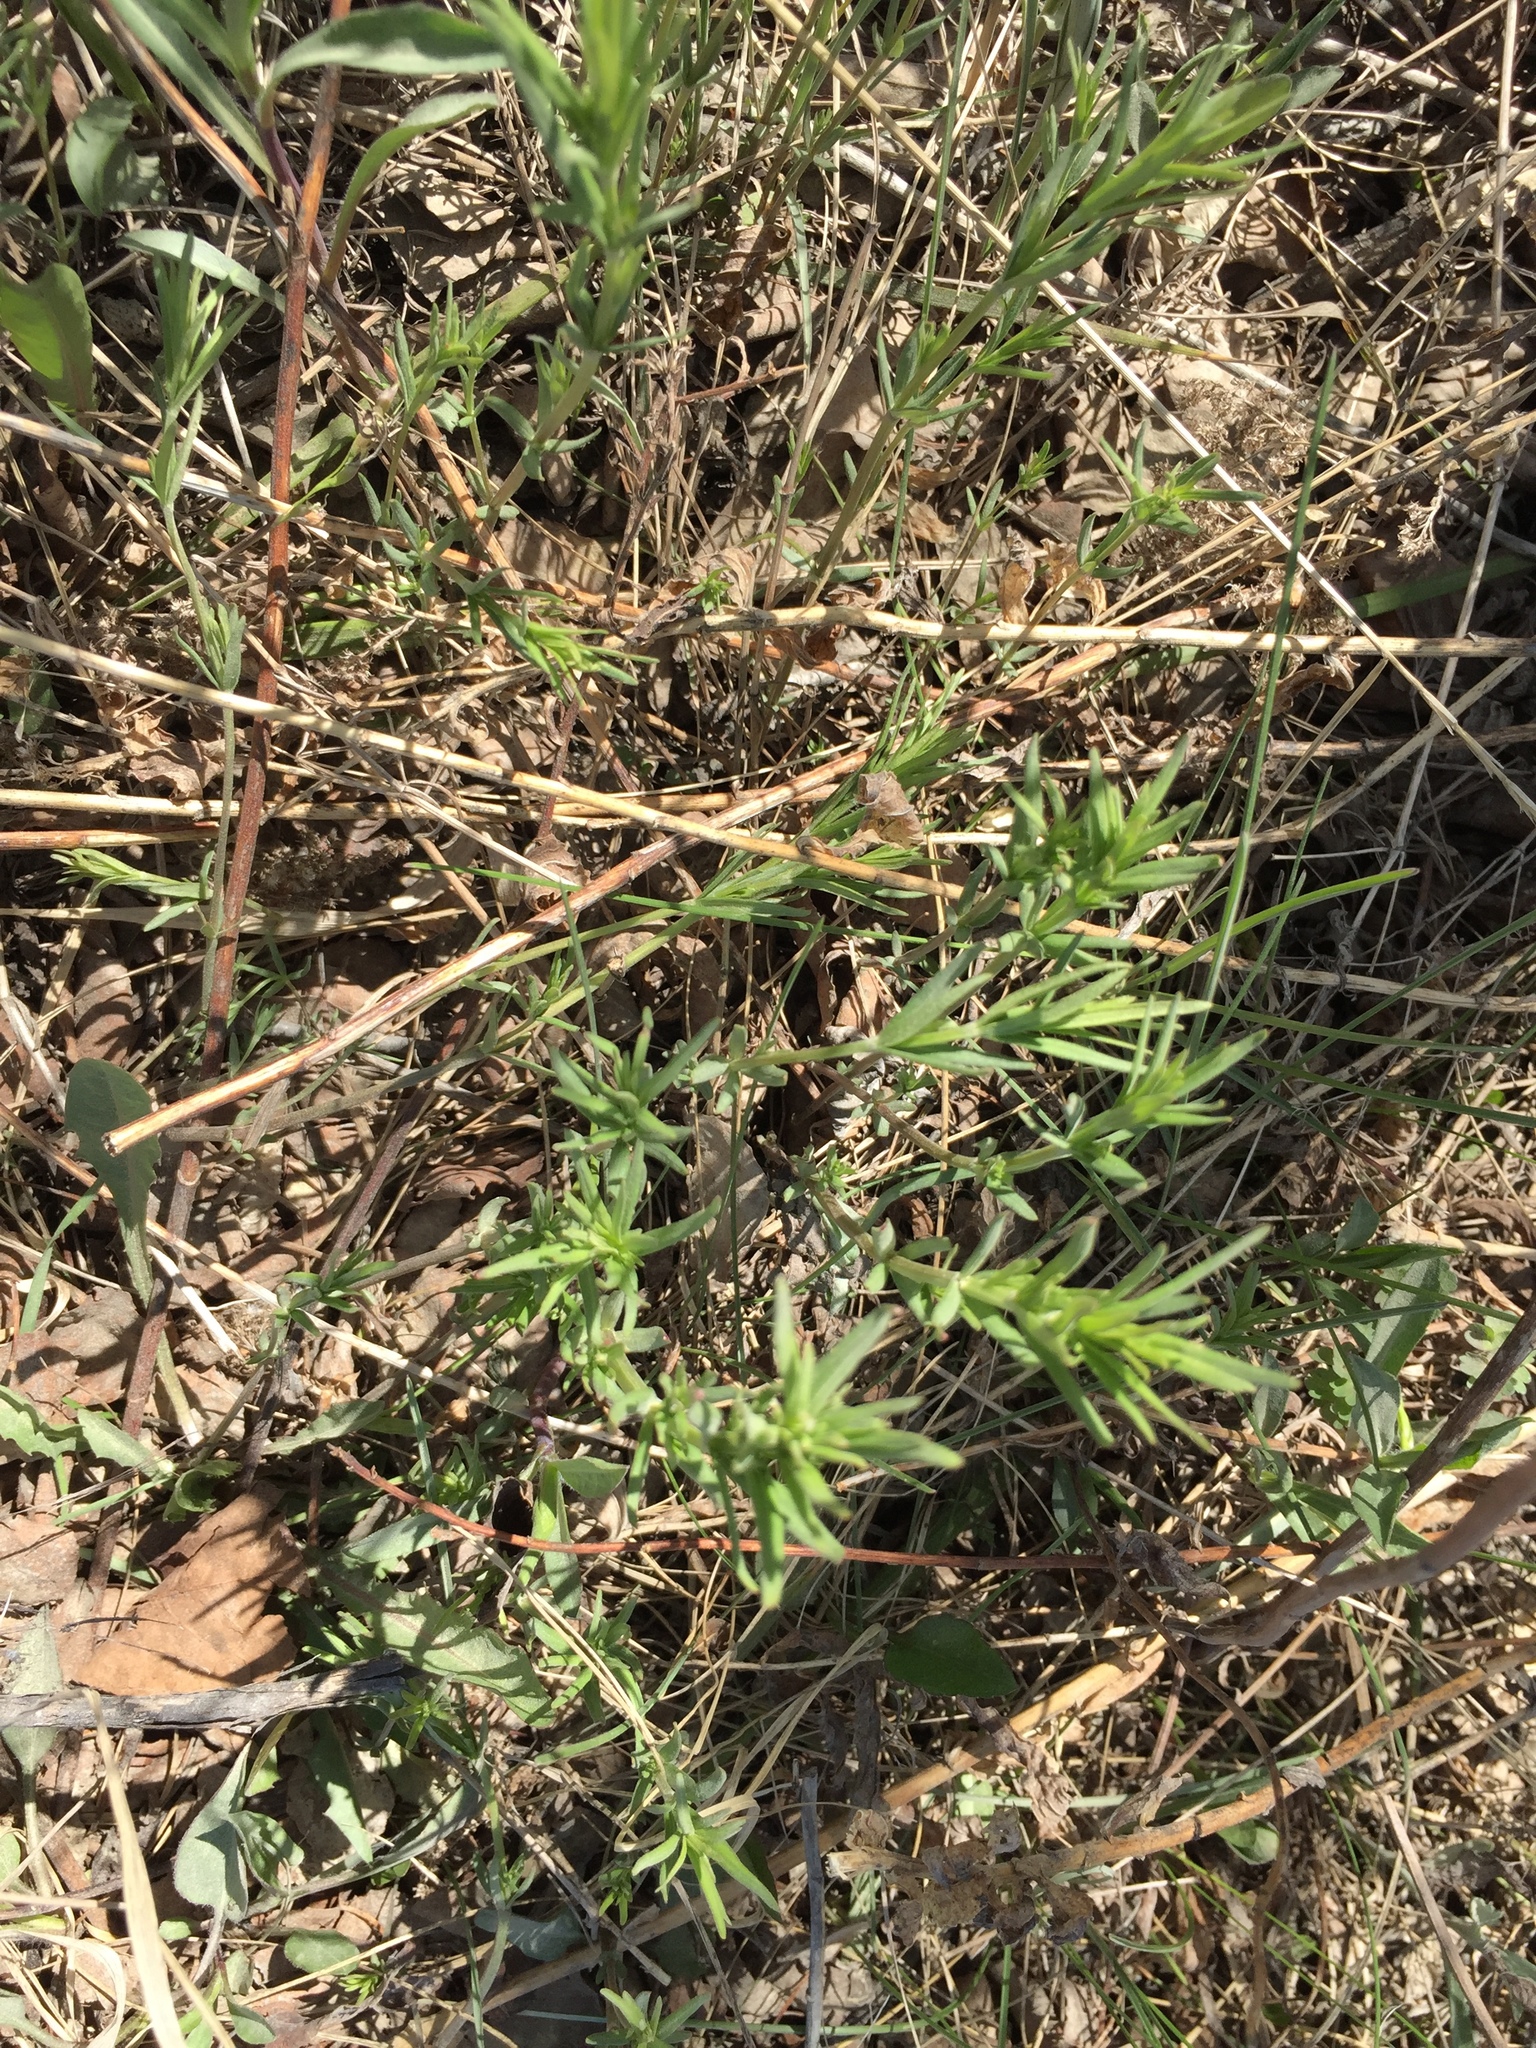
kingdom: Plantae
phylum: Tracheophyta
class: Magnoliopsida
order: Gentianales
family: Rubiaceae
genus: Galium
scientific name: Galium boreale
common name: Northern bedstraw
